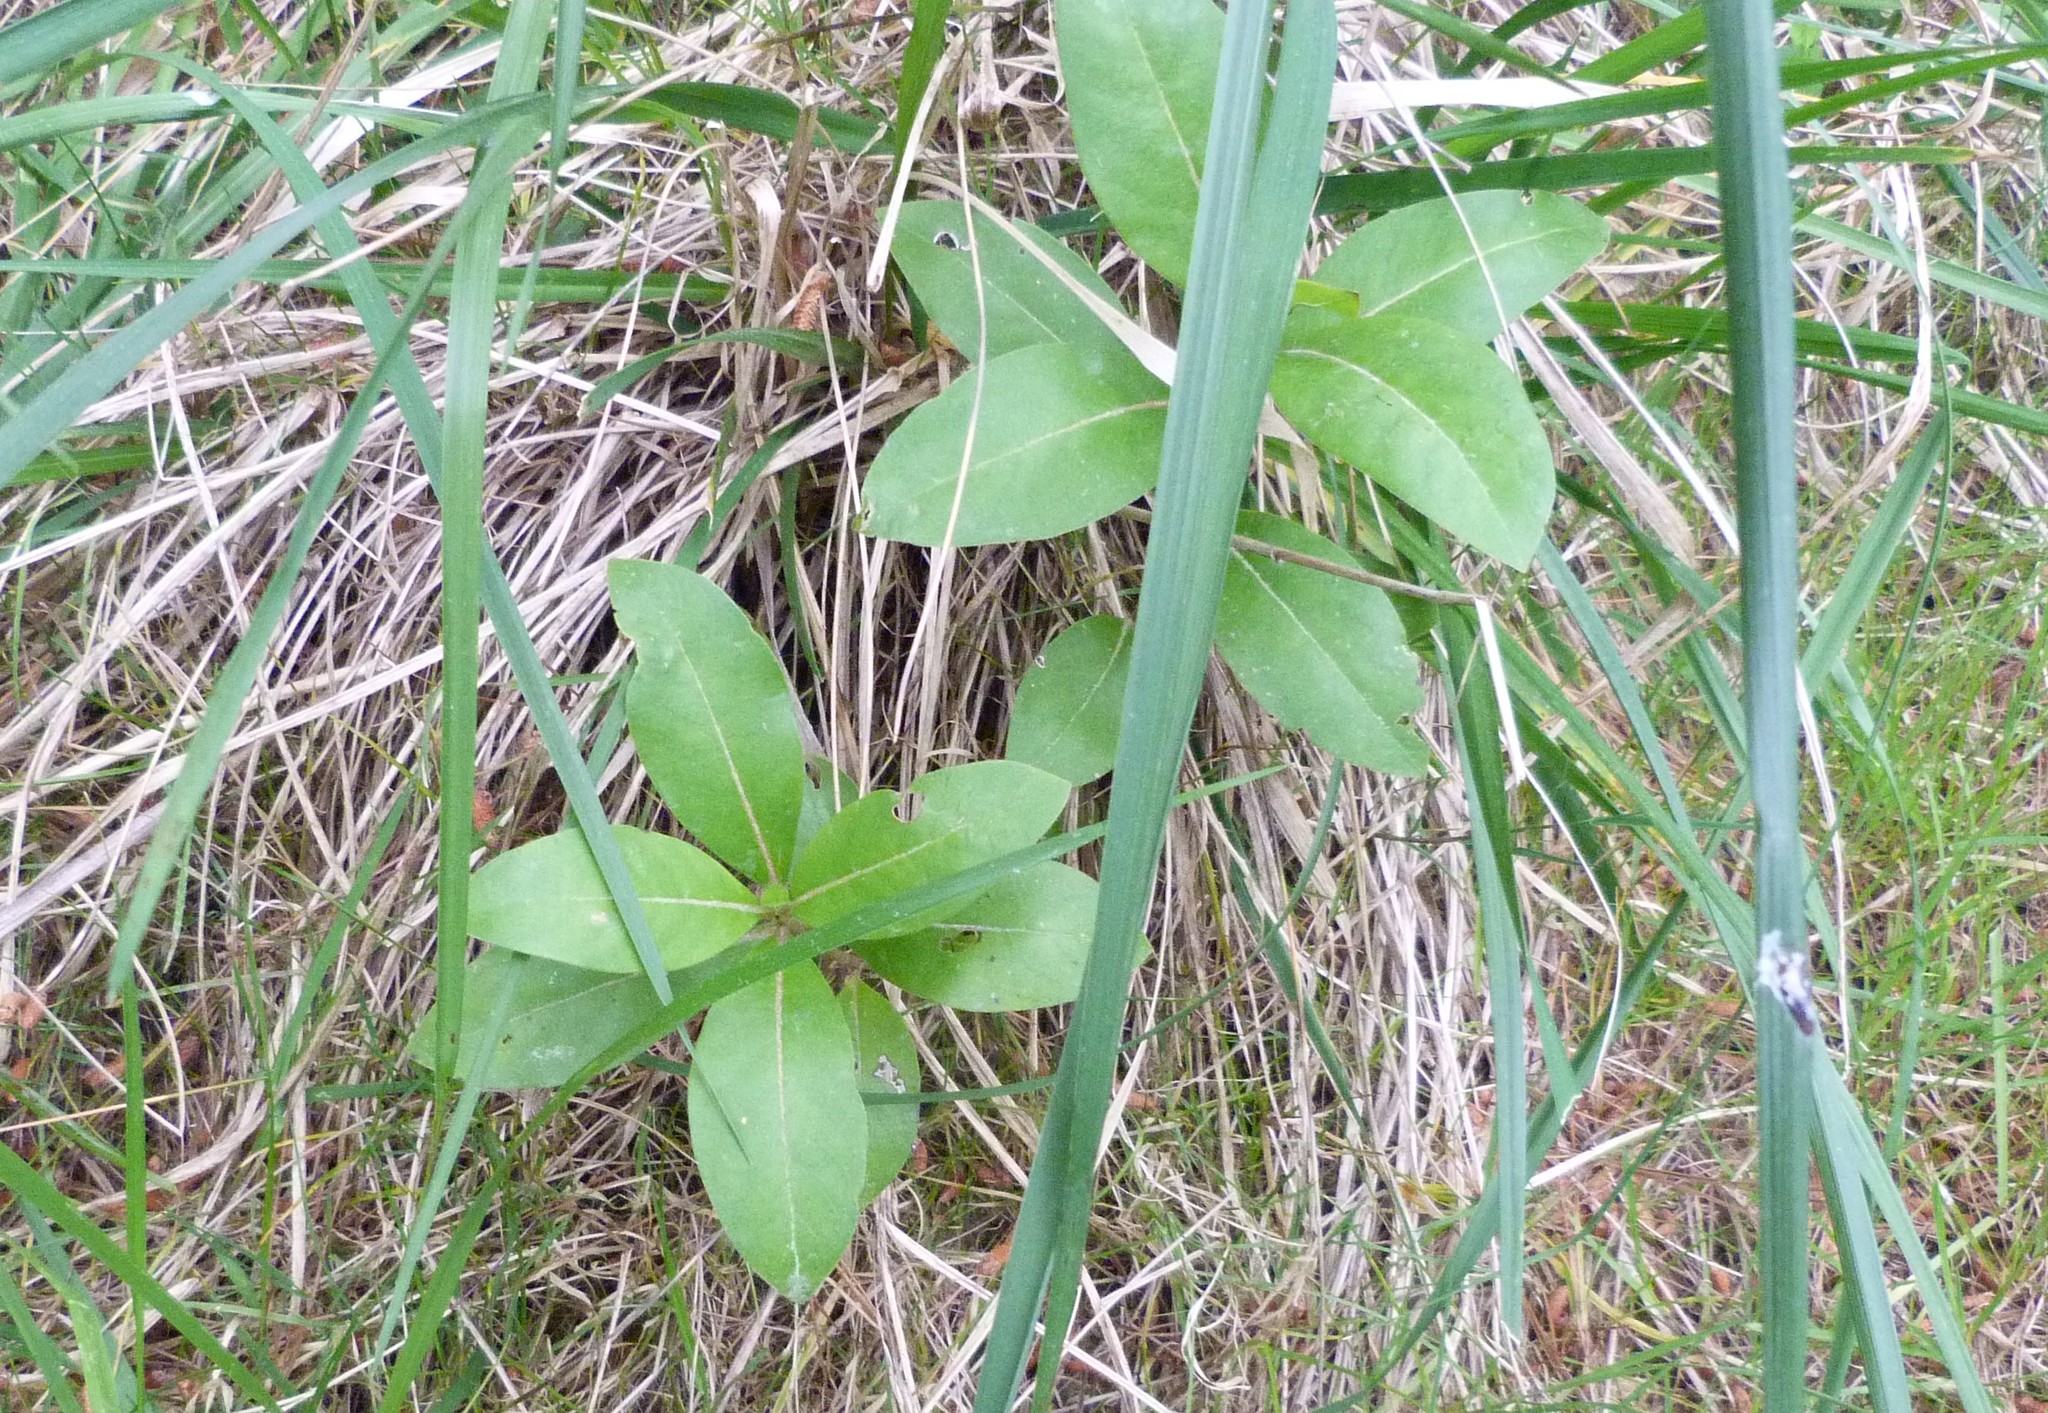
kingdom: Plantae
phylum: Tracheophyta
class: Magnoliopsida
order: Gentianales
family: Rubiaceae
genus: Coprosma
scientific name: Coprosma robusta
